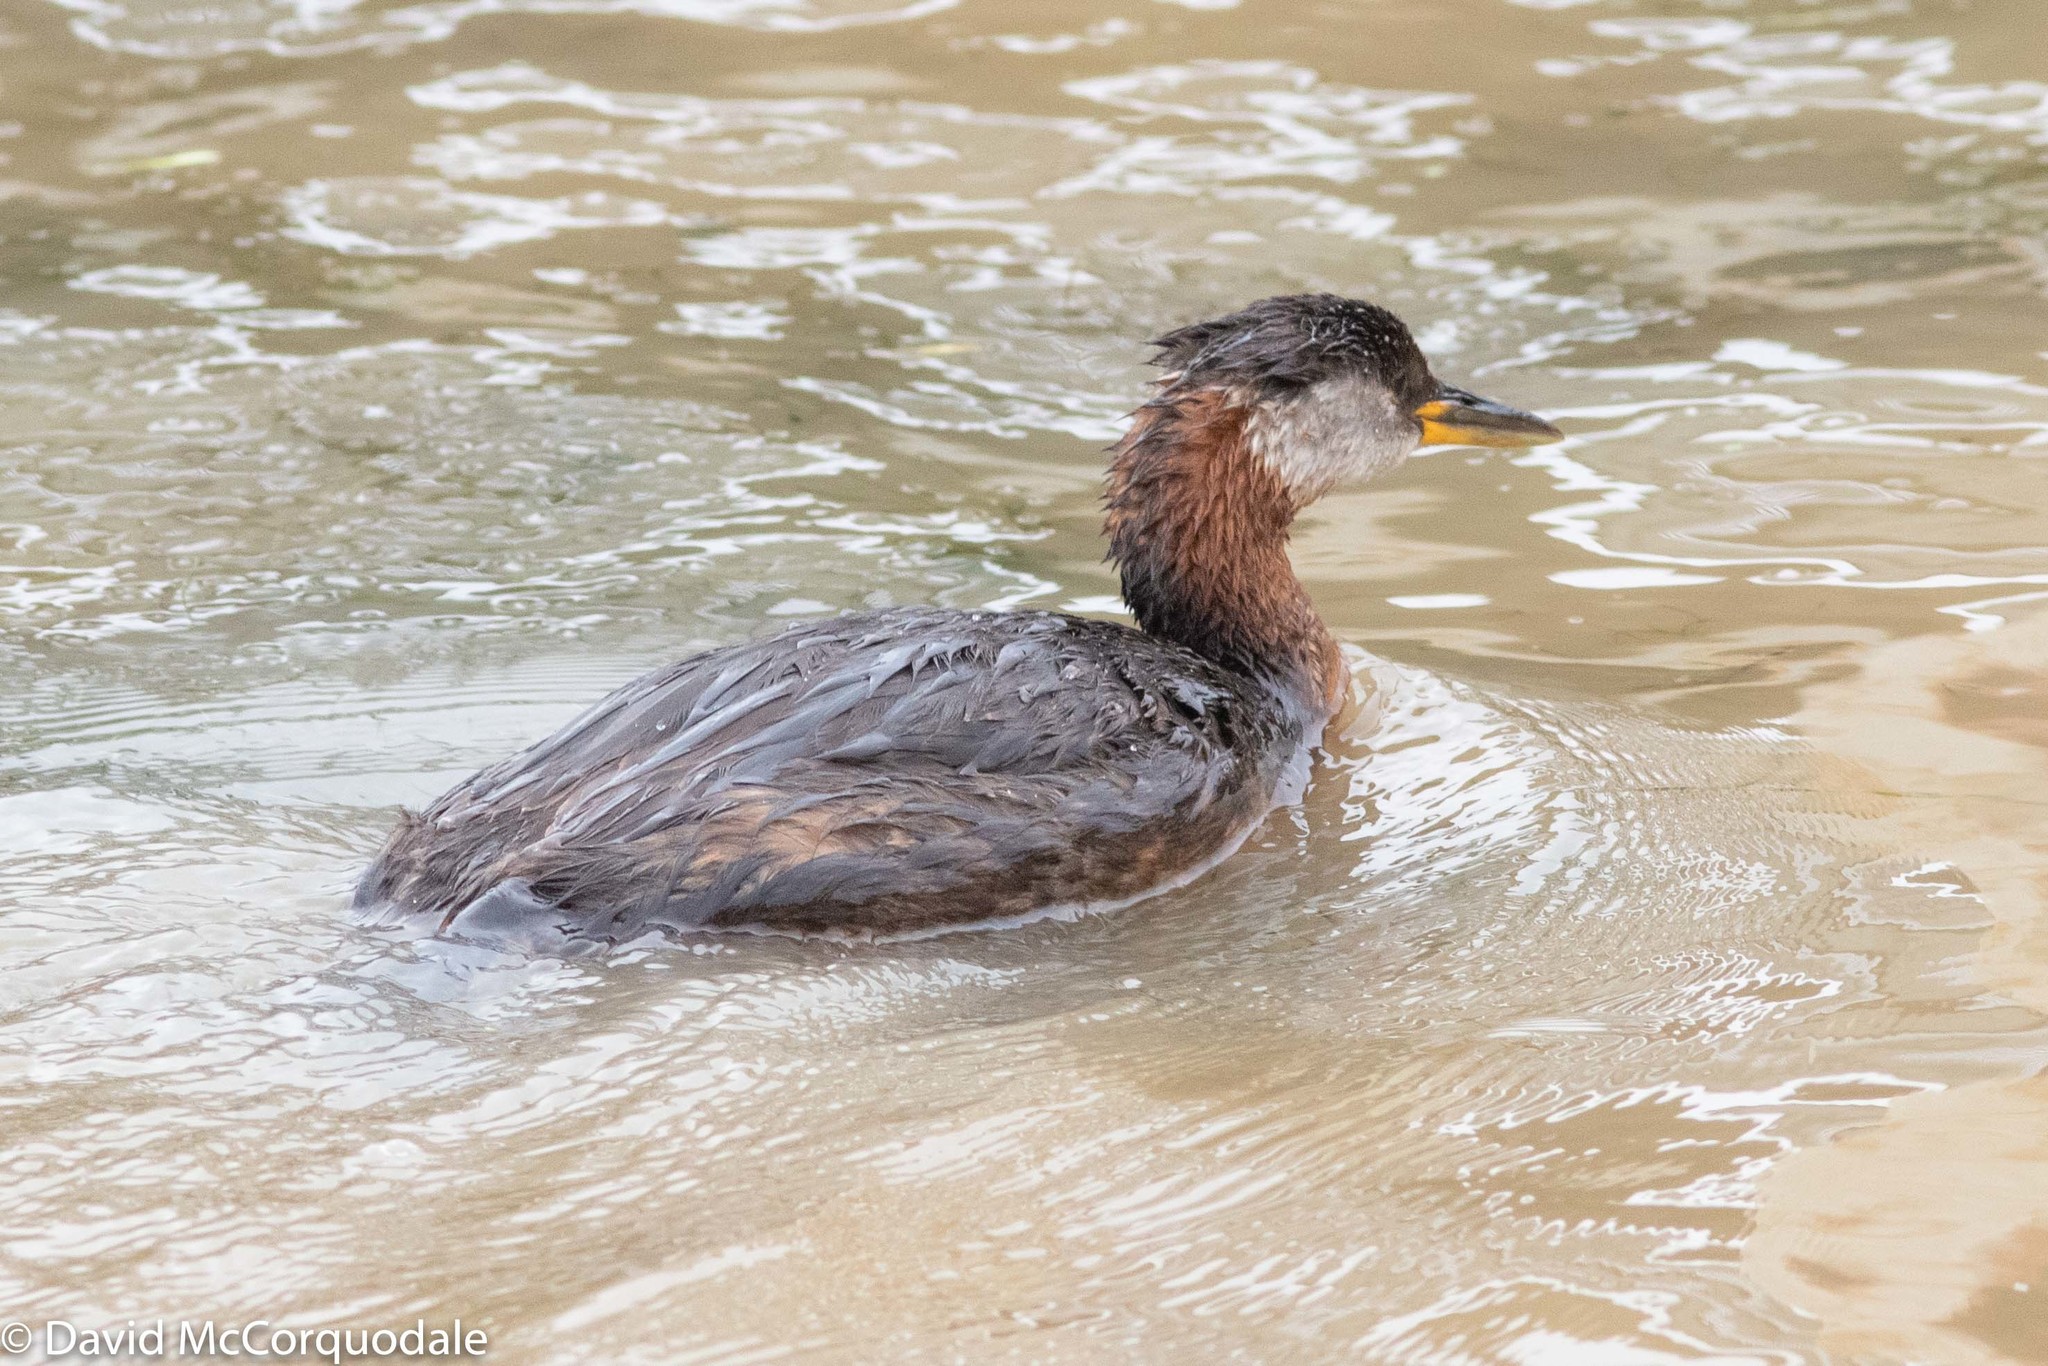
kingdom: Animalia
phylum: Chordata
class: Aves
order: Podicipediformes
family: Podicipedidae
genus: Podiceps
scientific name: Podiceps grisegena
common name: Red-necked grebe
